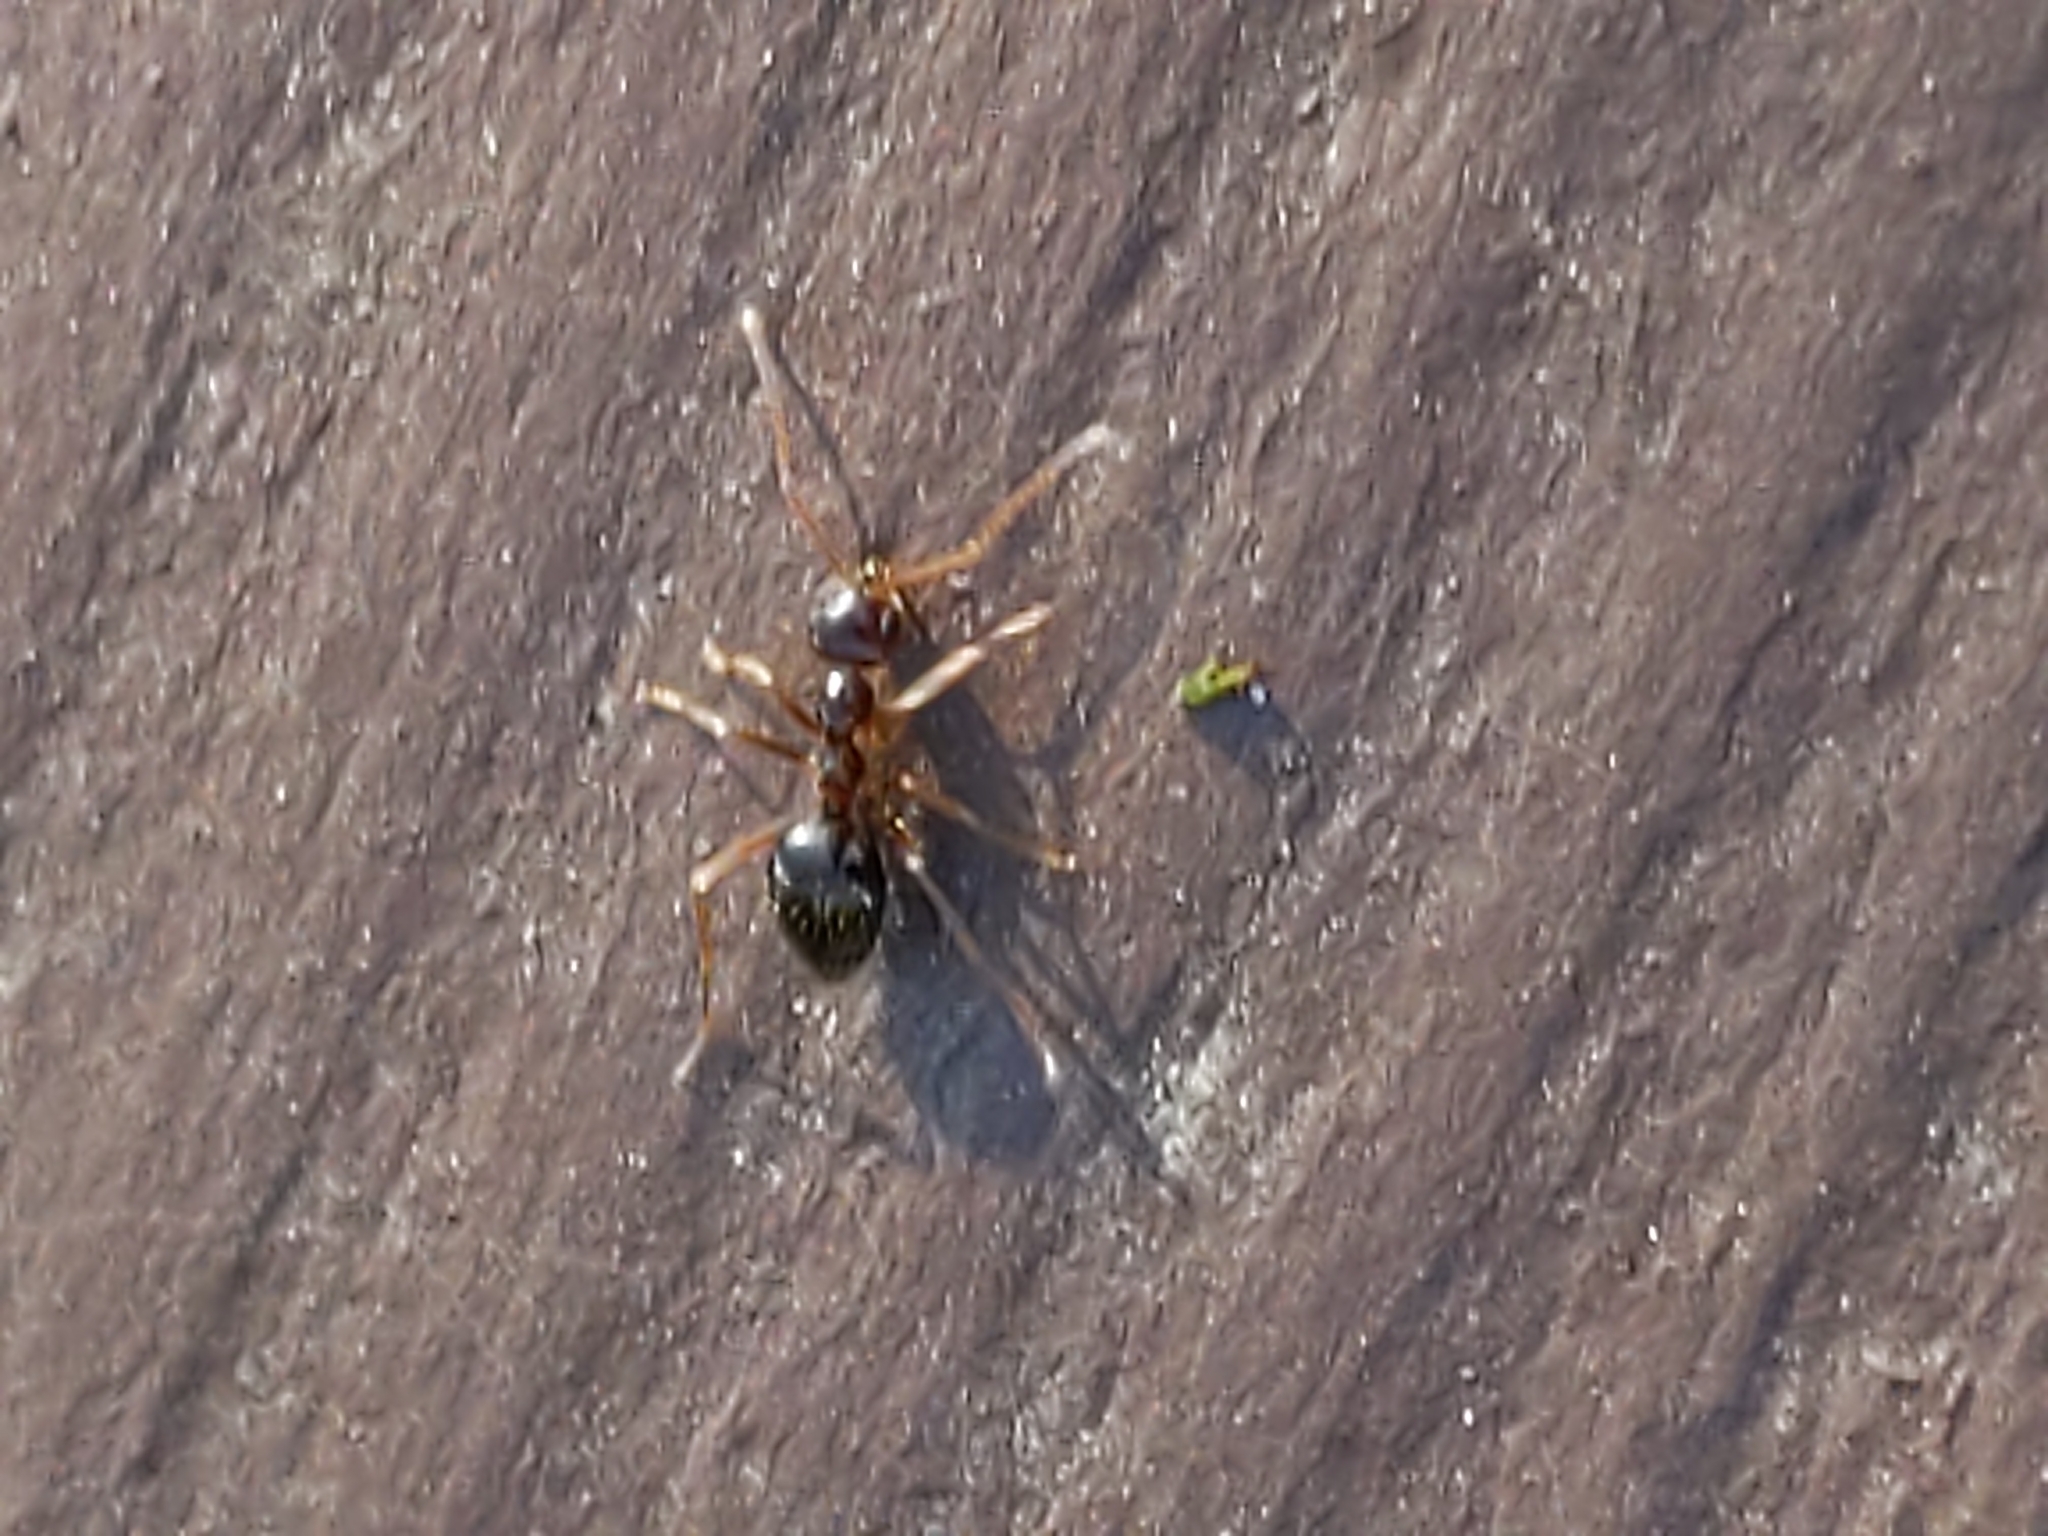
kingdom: Animalia
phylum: Arthropoda
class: Insecta
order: Hymenoptera
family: Formicidae
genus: Prenolepis
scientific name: Prenolepis imparis
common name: Small honey ant
